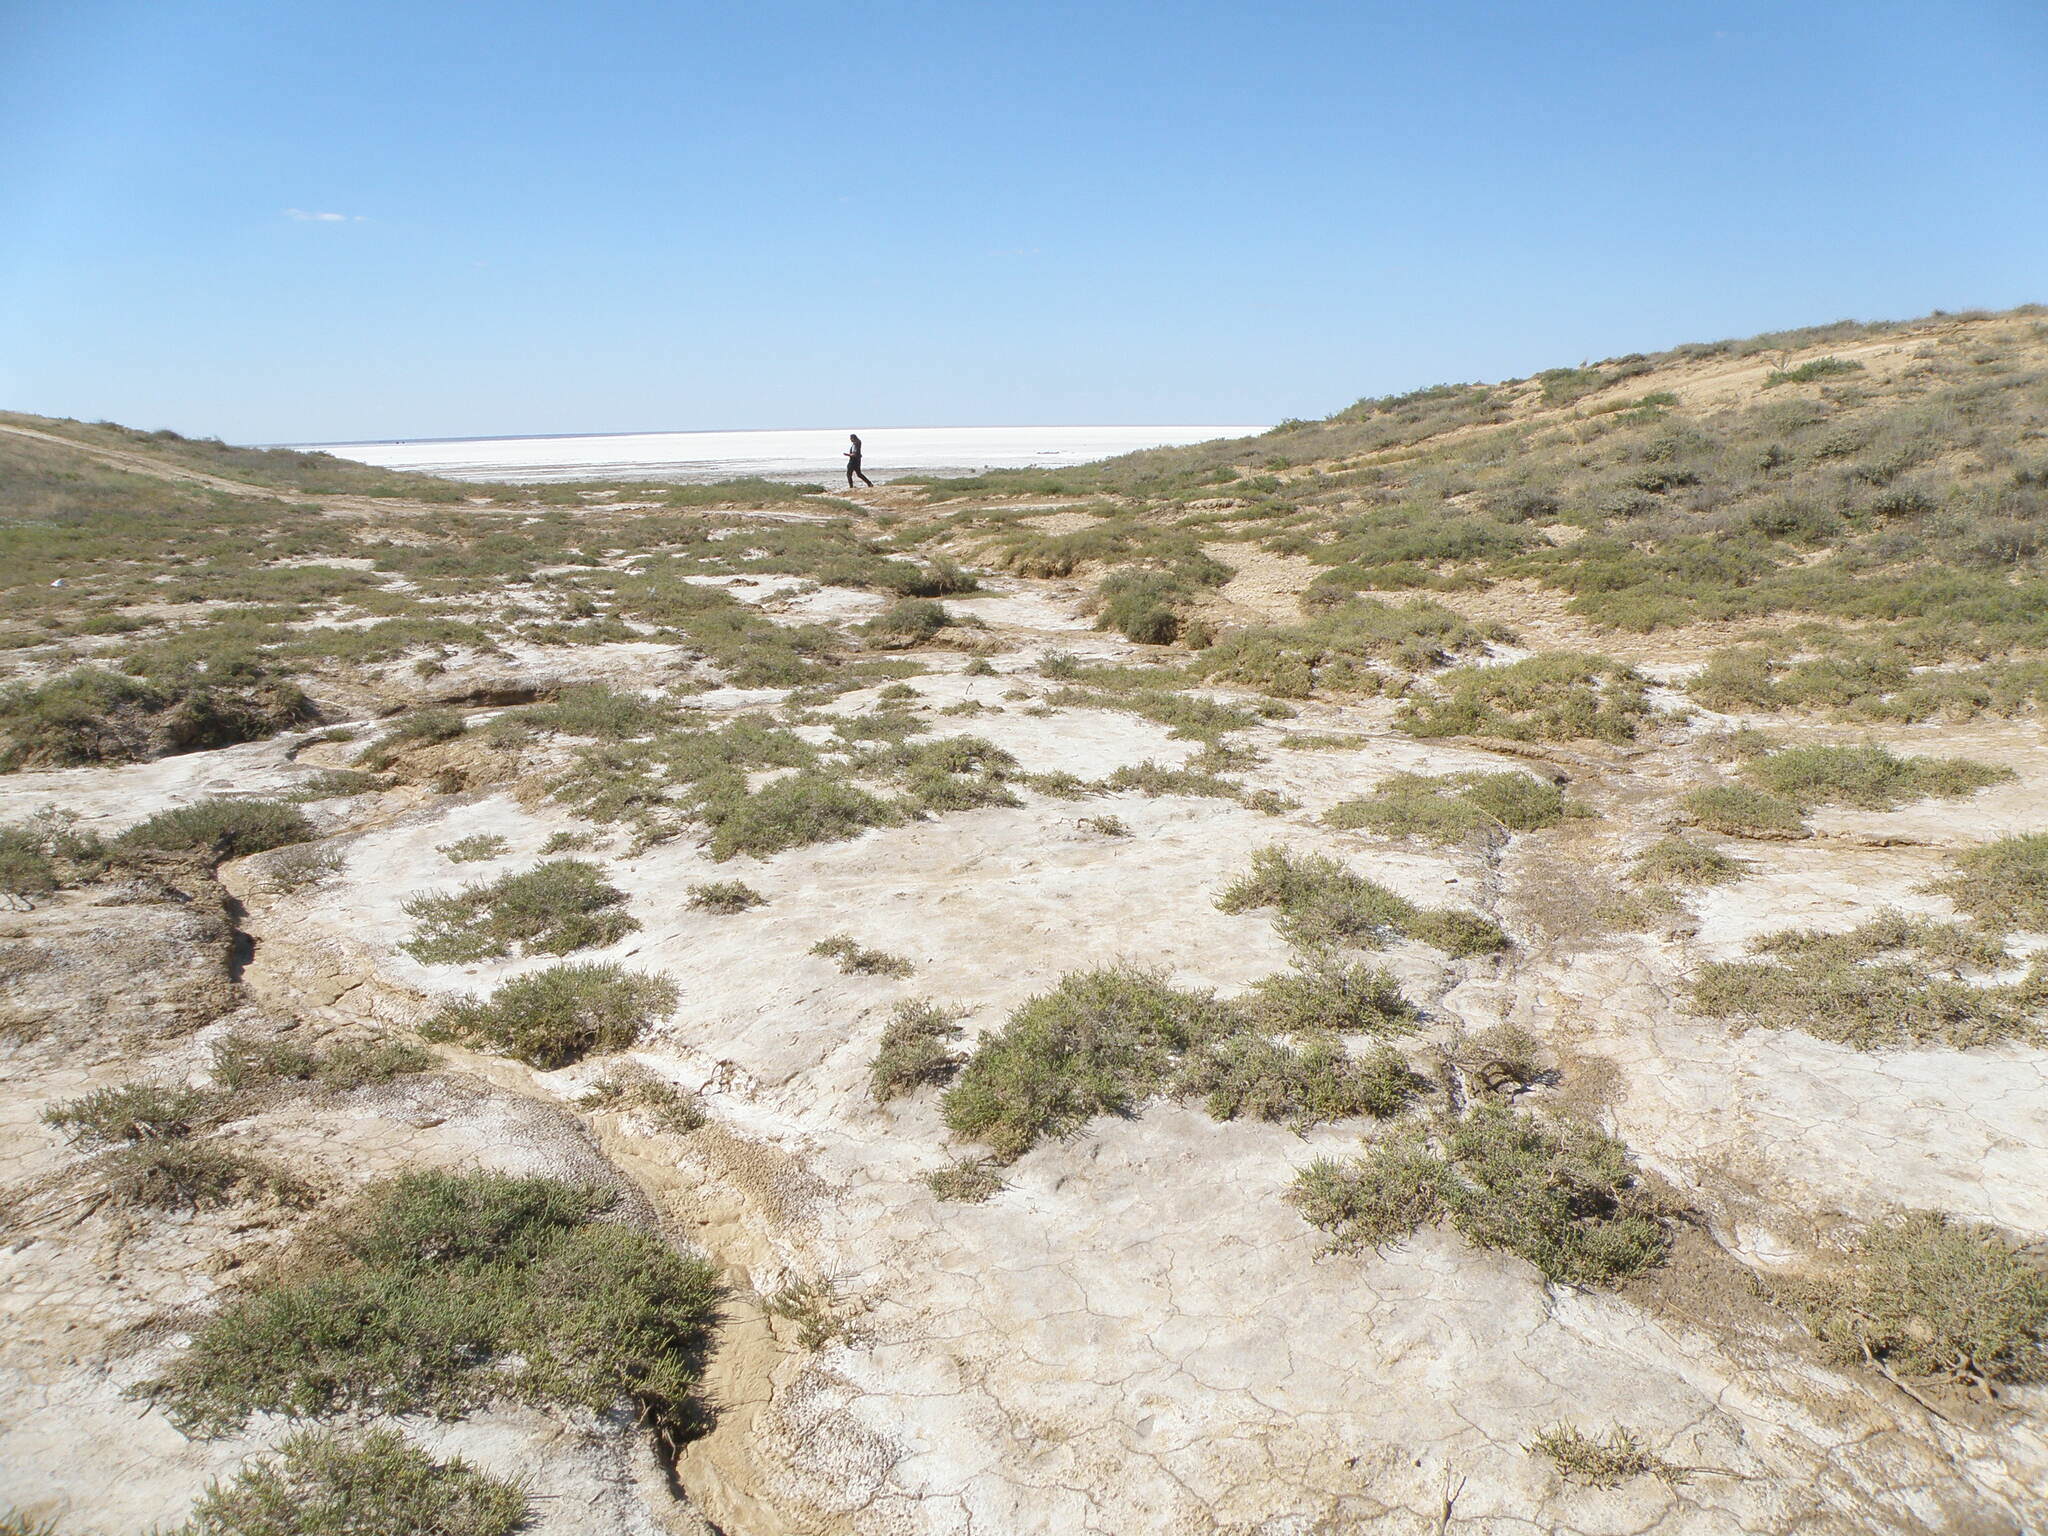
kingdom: Plantae
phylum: Tracheophyta
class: Magnoliopsida
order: Caryophyllales
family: Amaranthaceae
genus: Halocnemum
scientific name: Halocnemum strobilaceum
